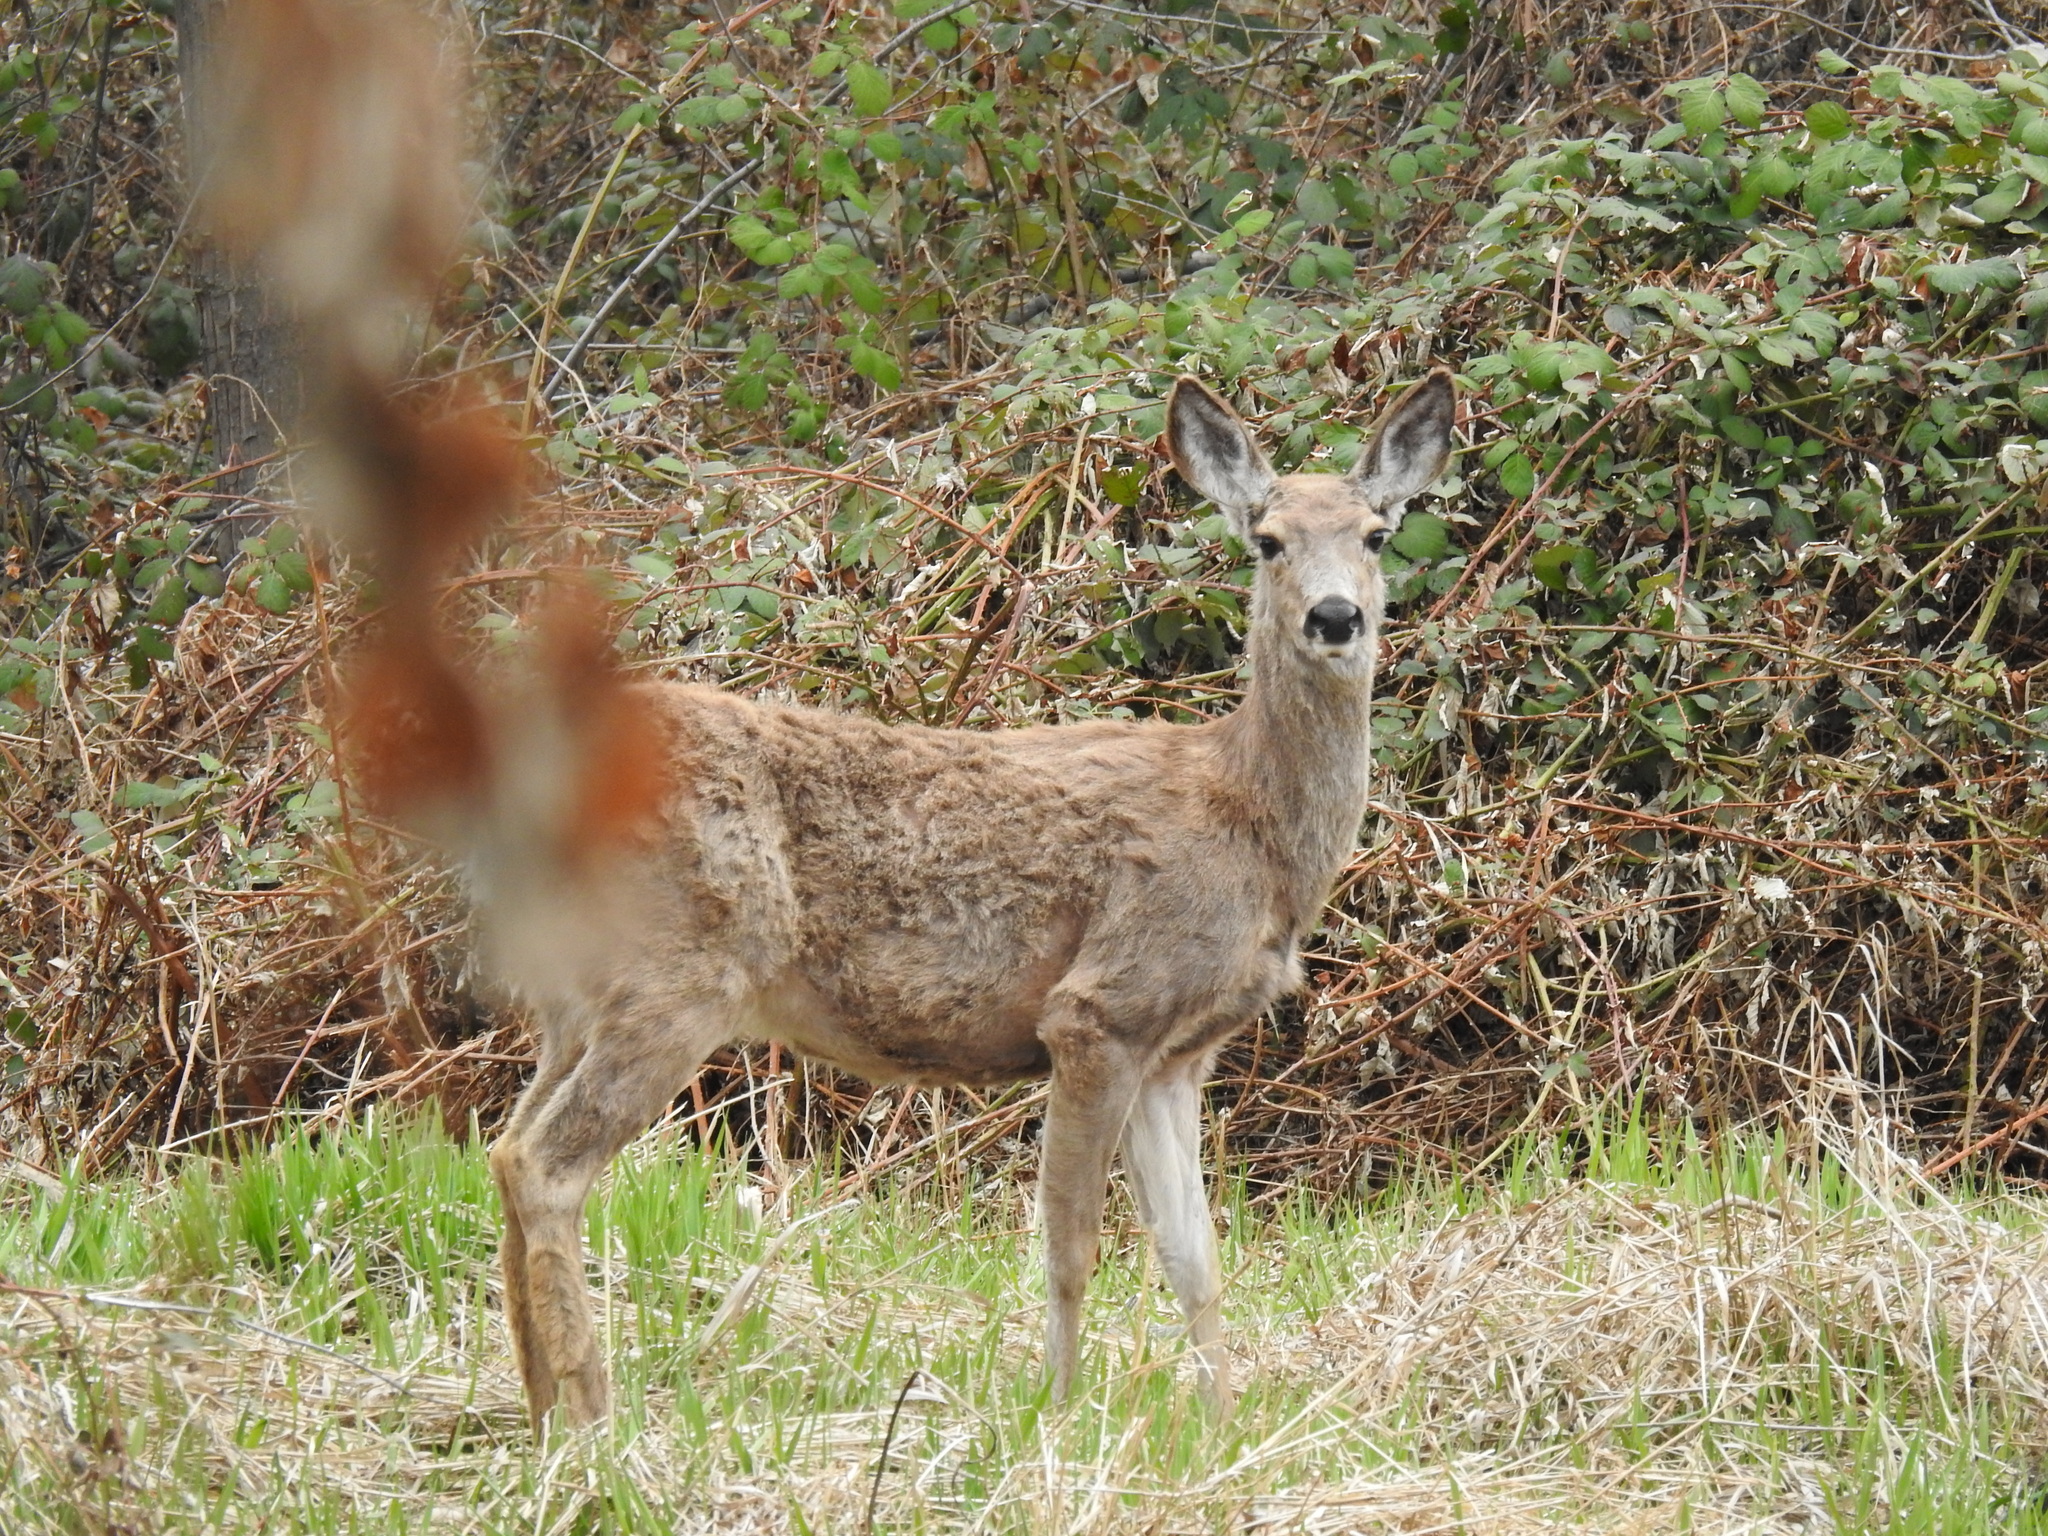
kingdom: Animalia
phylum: Chordata
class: Mammalia
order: Artiodactyla
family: Cervidae
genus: Odocoileus
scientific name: Odocoileus hemionus
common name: Mule deer
